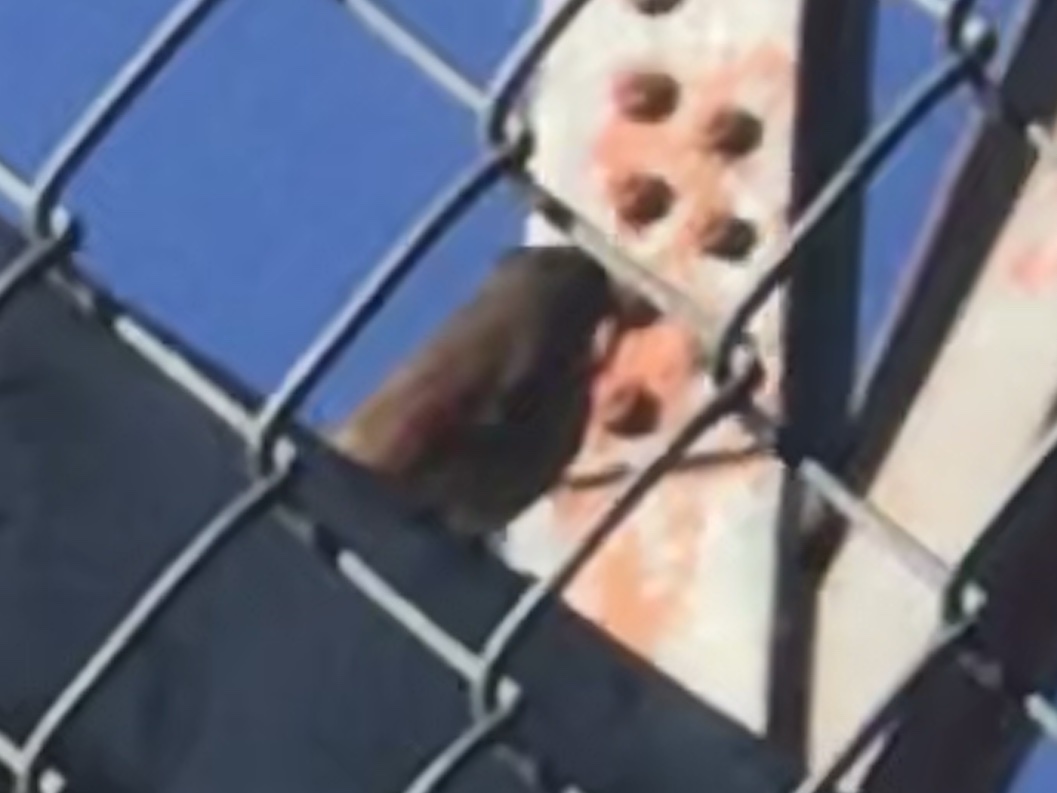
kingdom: Animalia
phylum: Chordata
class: Aves
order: Passeriformes
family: Cardinalidae
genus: Cardinalis
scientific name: Cardinalis cardinalis
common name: Northern cardinal
